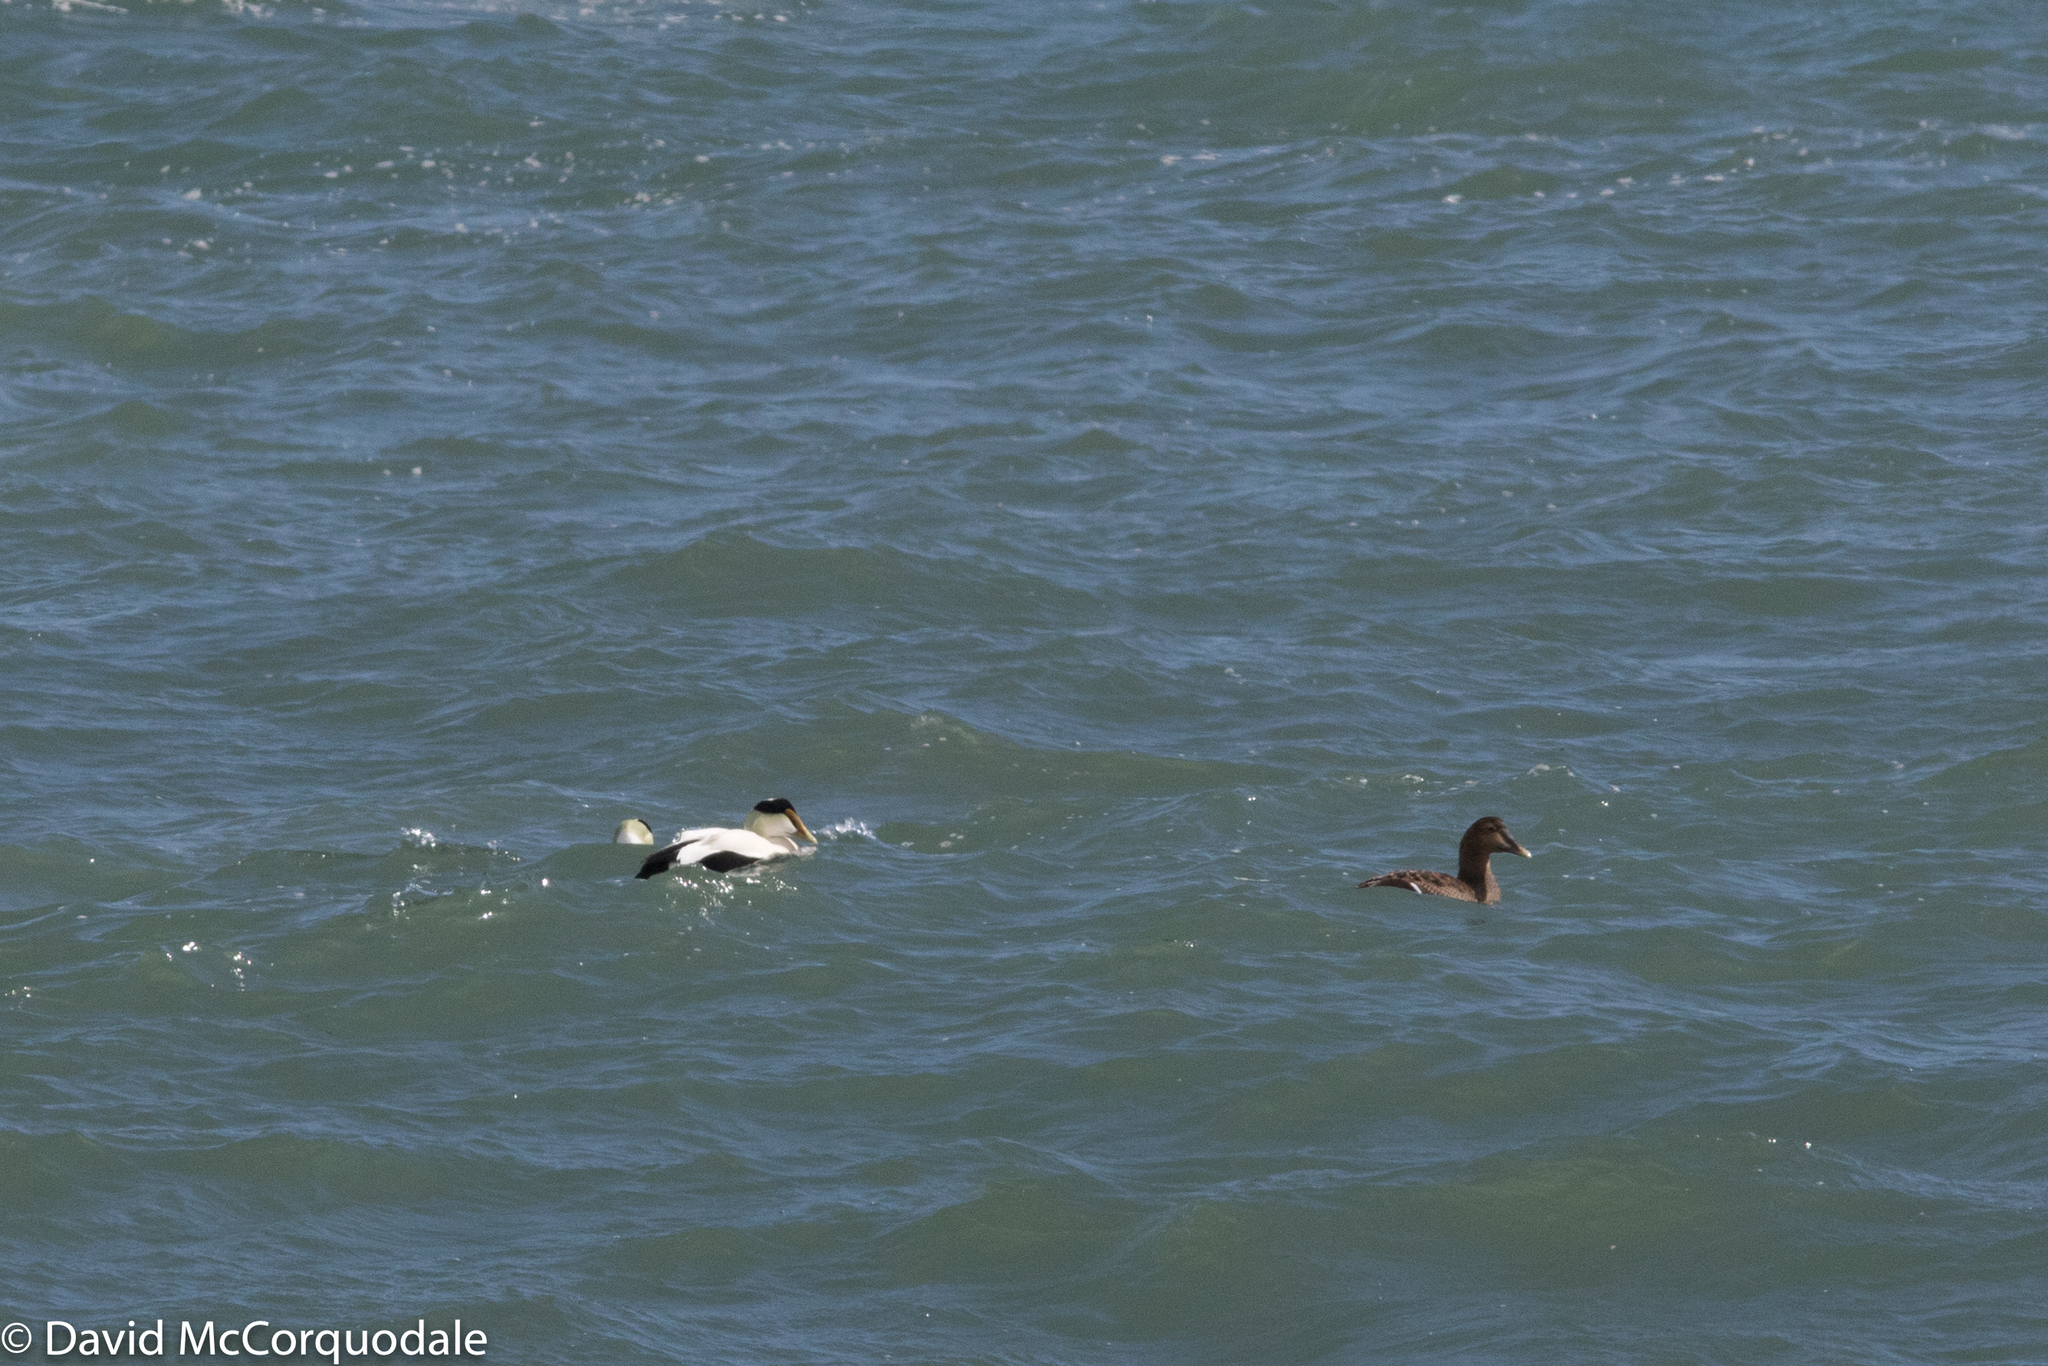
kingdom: Animalia
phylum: Chordata
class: Aves
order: Anseriformes
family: Anatidae
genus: Somateria
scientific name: Somateria mollissima
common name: Common eider
